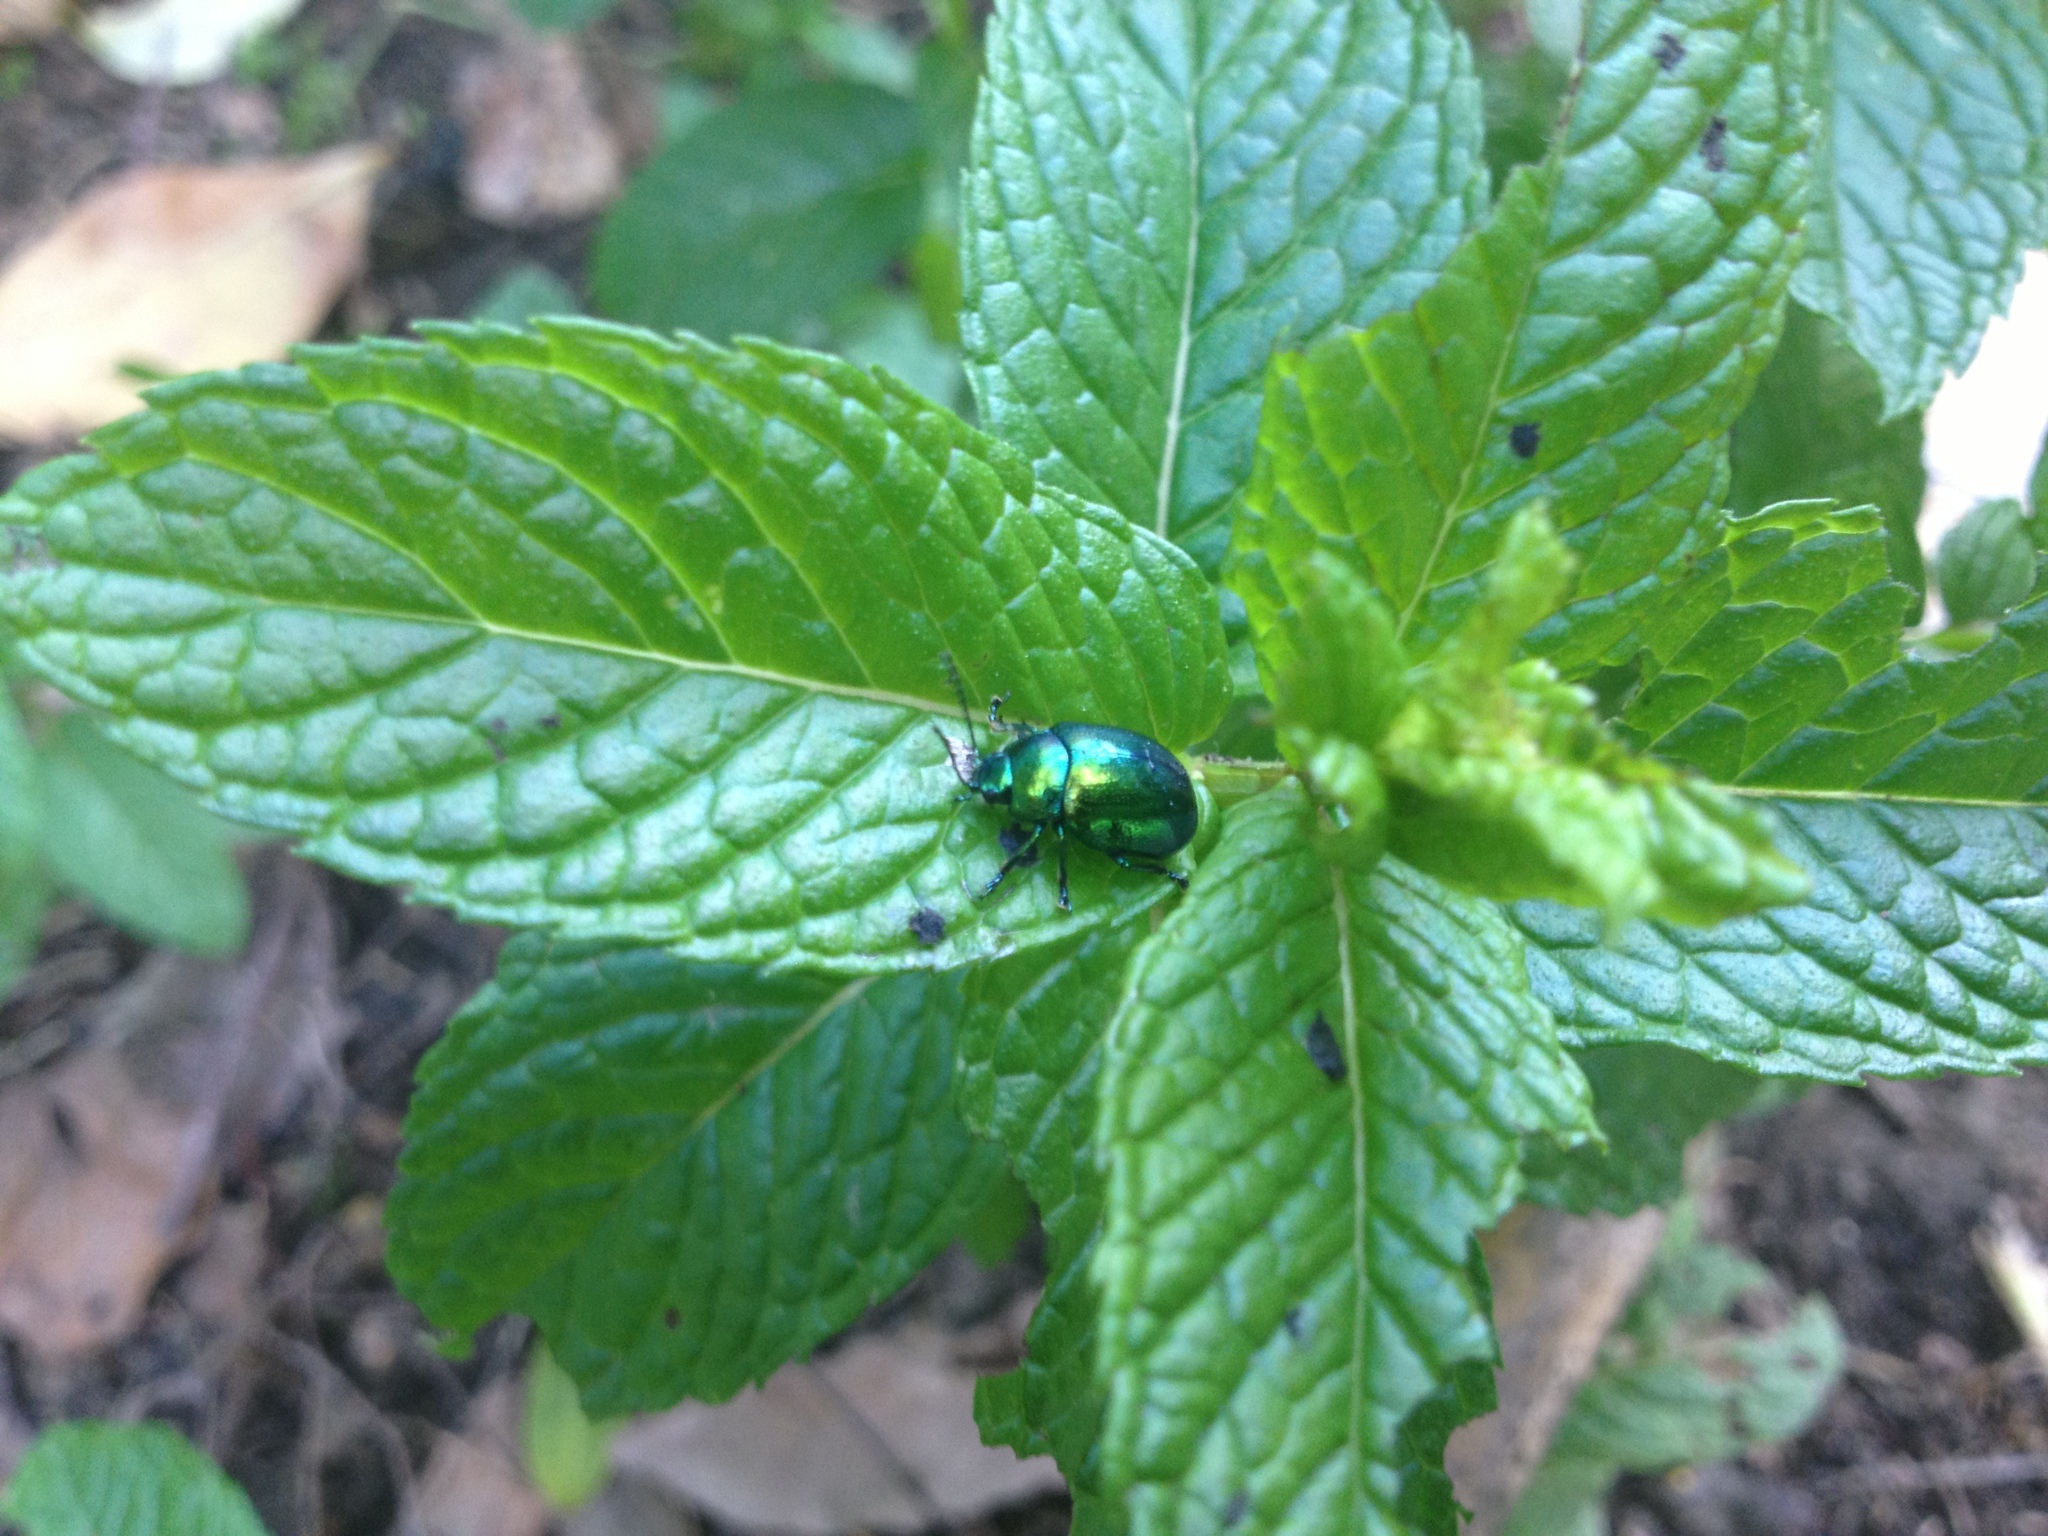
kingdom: Animalia
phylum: Arthropoda
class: Insecta
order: Coleoptera
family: Chrysomelidae
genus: Chrysolina
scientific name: Chrysolina herbacea
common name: Mint leaf beatle
